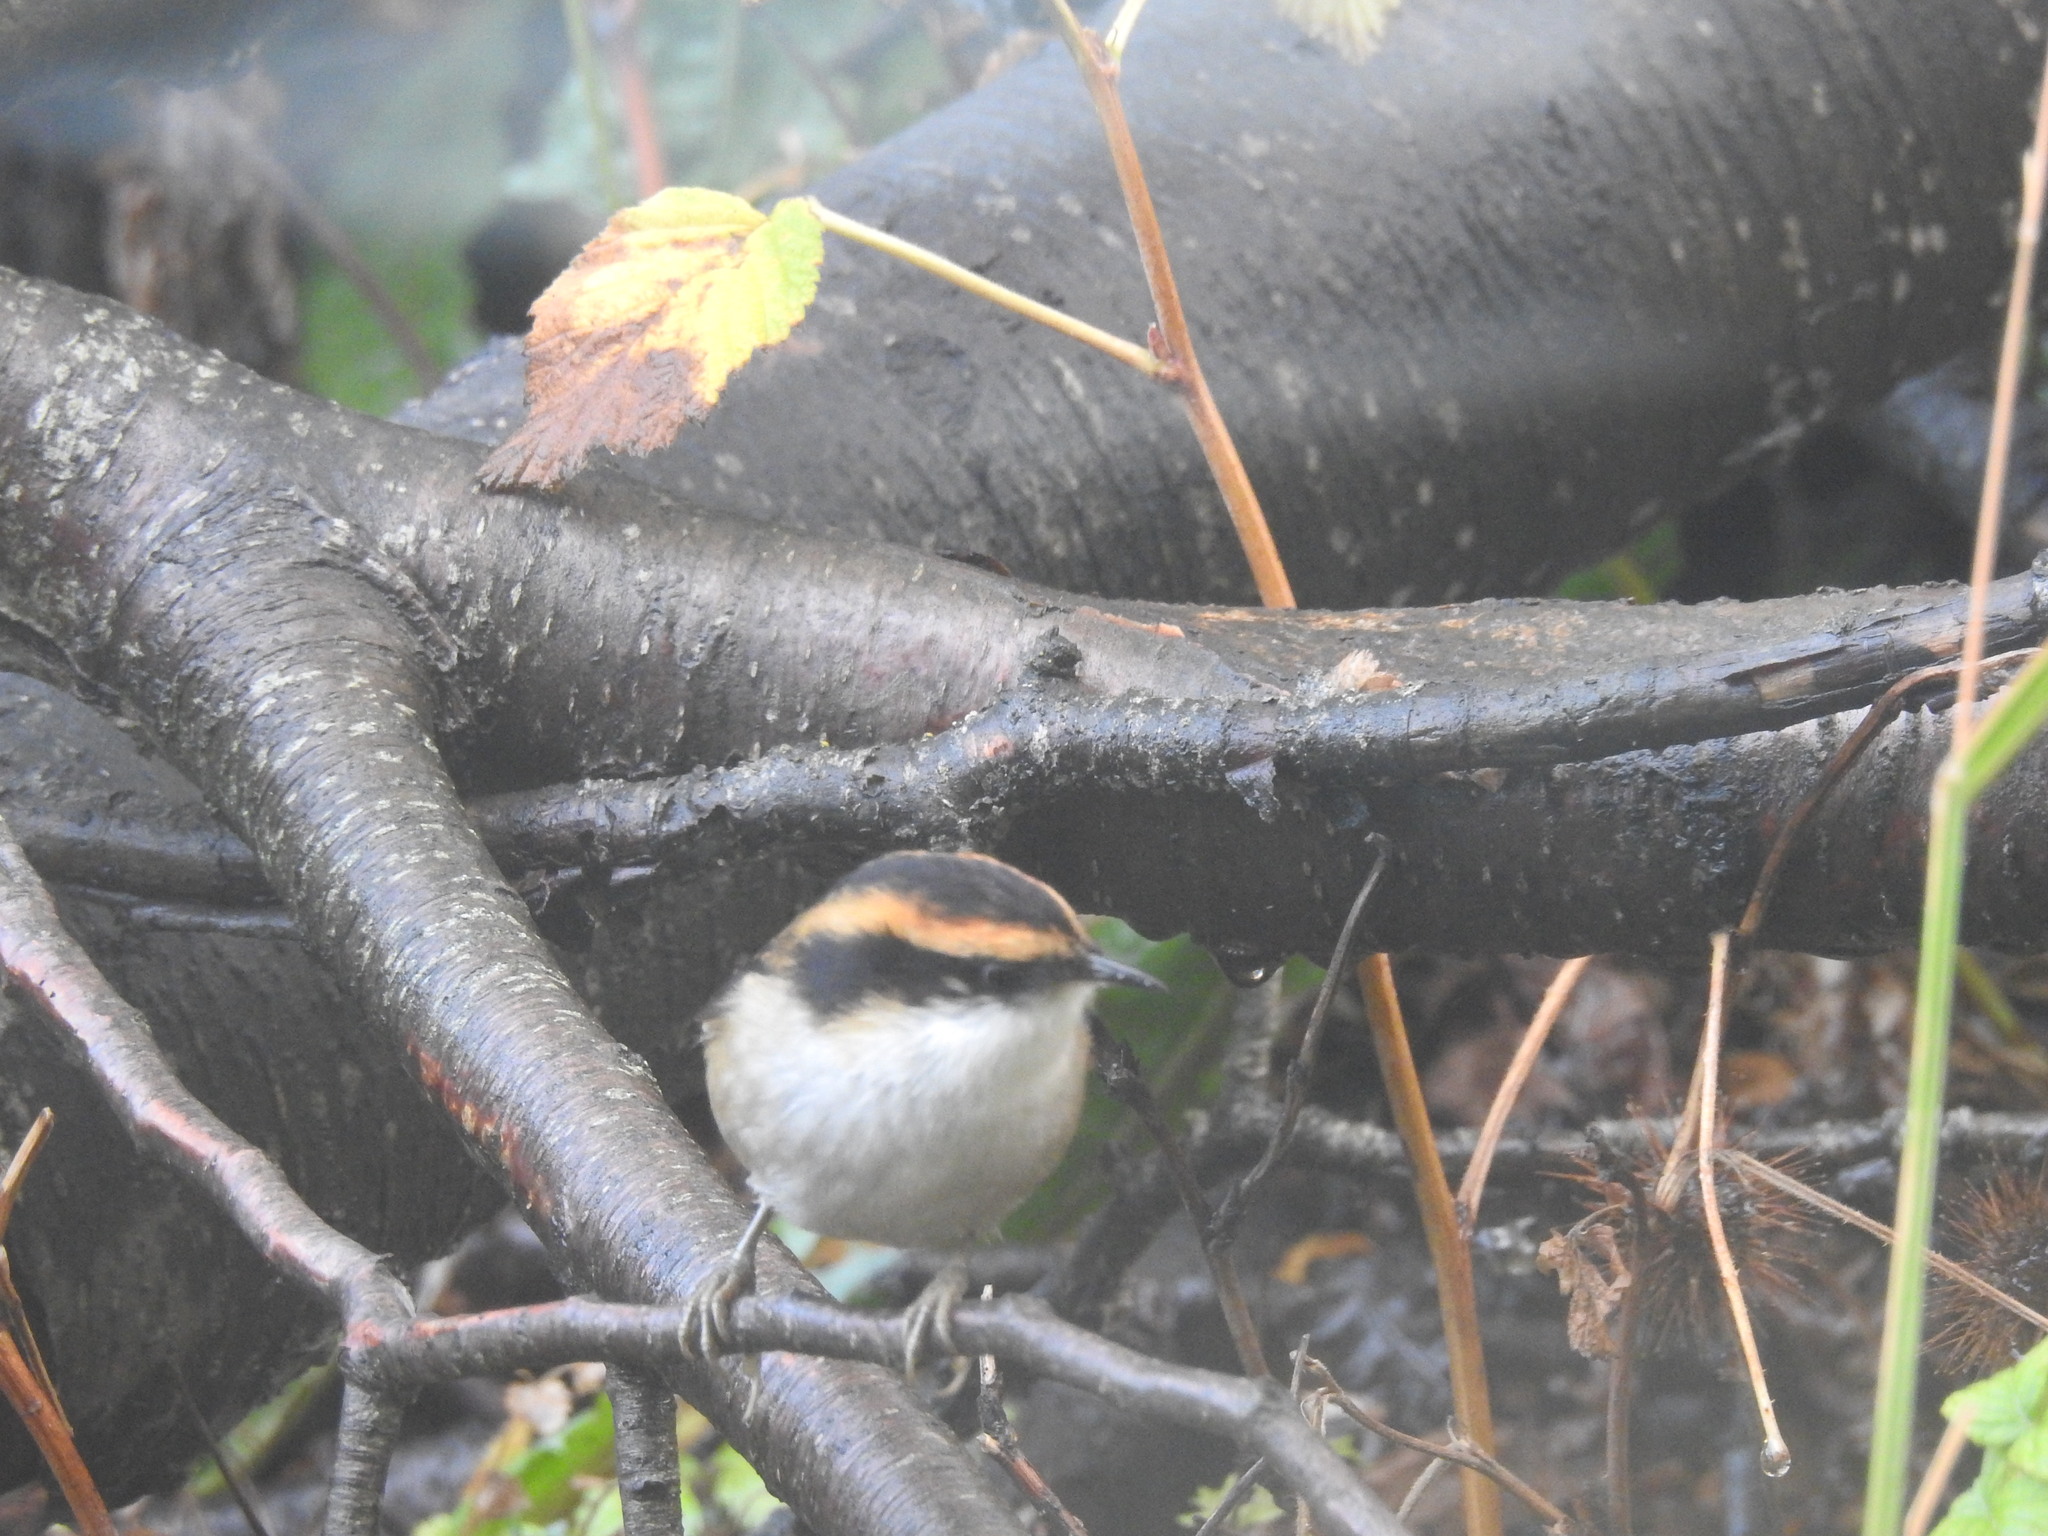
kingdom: Animalia
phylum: Chordata
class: Aves
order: Passeriformes
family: Furnariidae
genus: Aphrastura
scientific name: Aphrastura spinicauda
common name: Thorn-tailed rayadito
